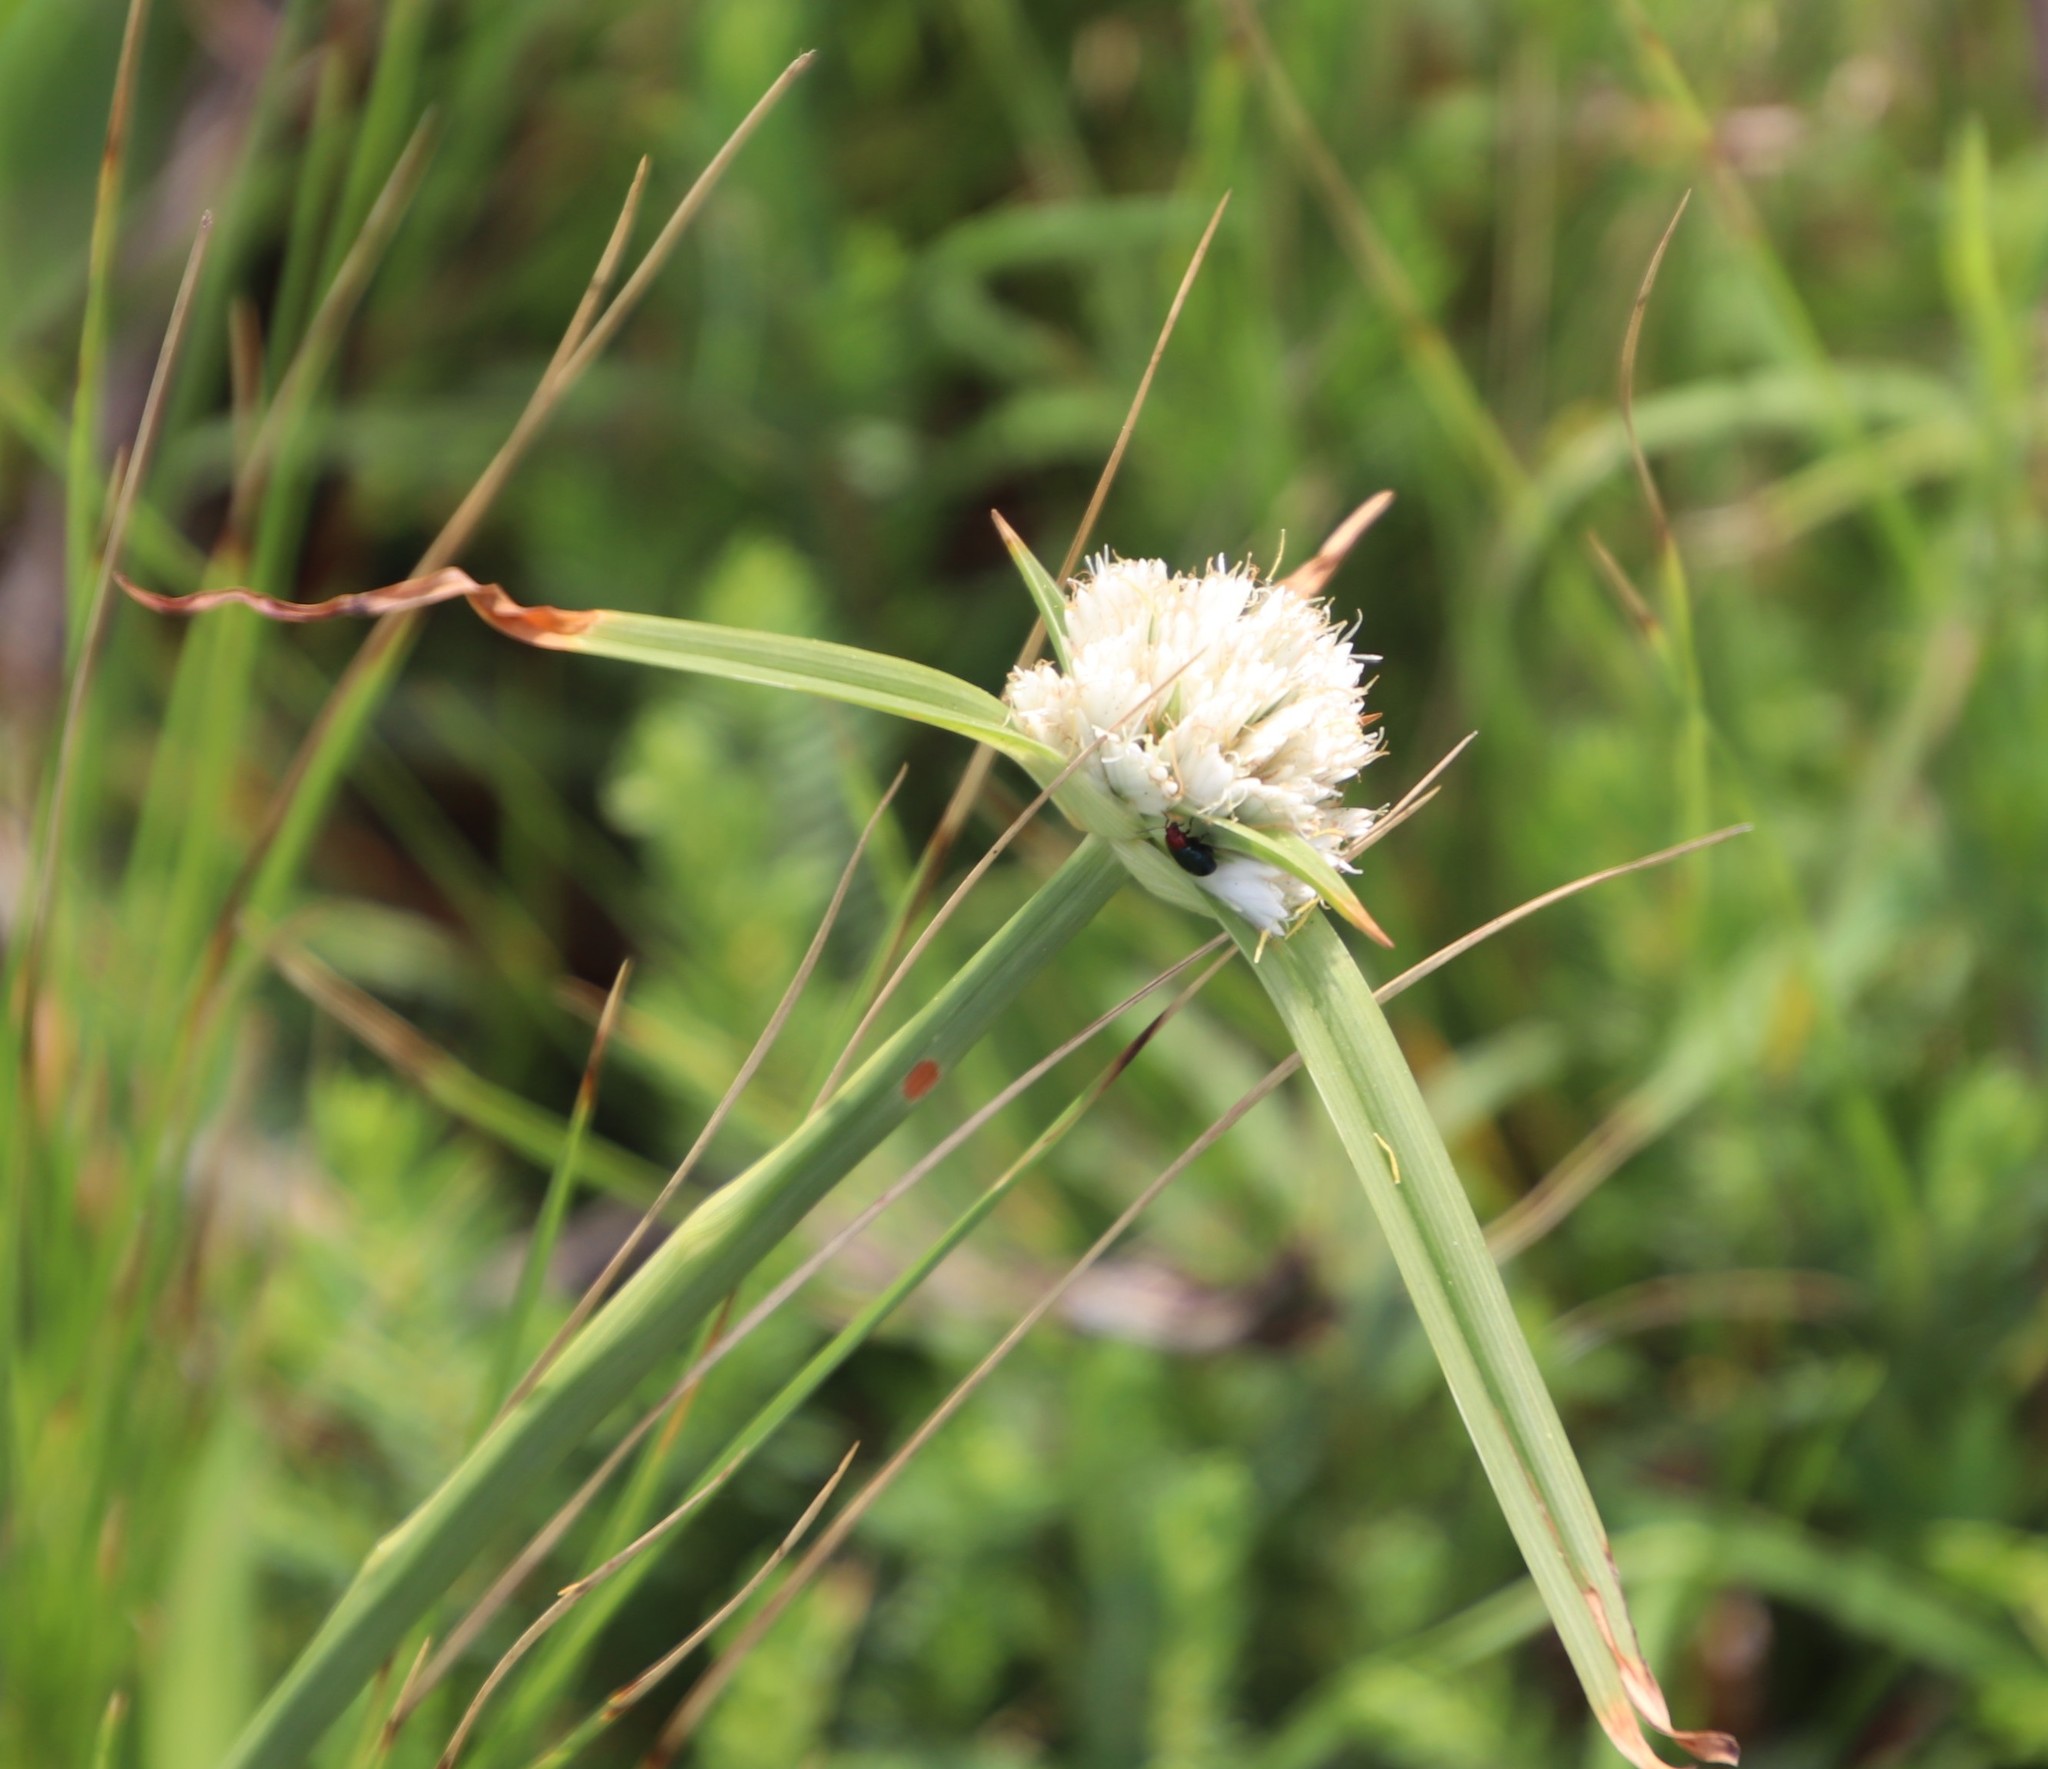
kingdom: Plantae
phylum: Tracheophyta
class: Liliopsida
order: Poales
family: Cyperaceae
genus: Cyperus
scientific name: Cyperus niveus
